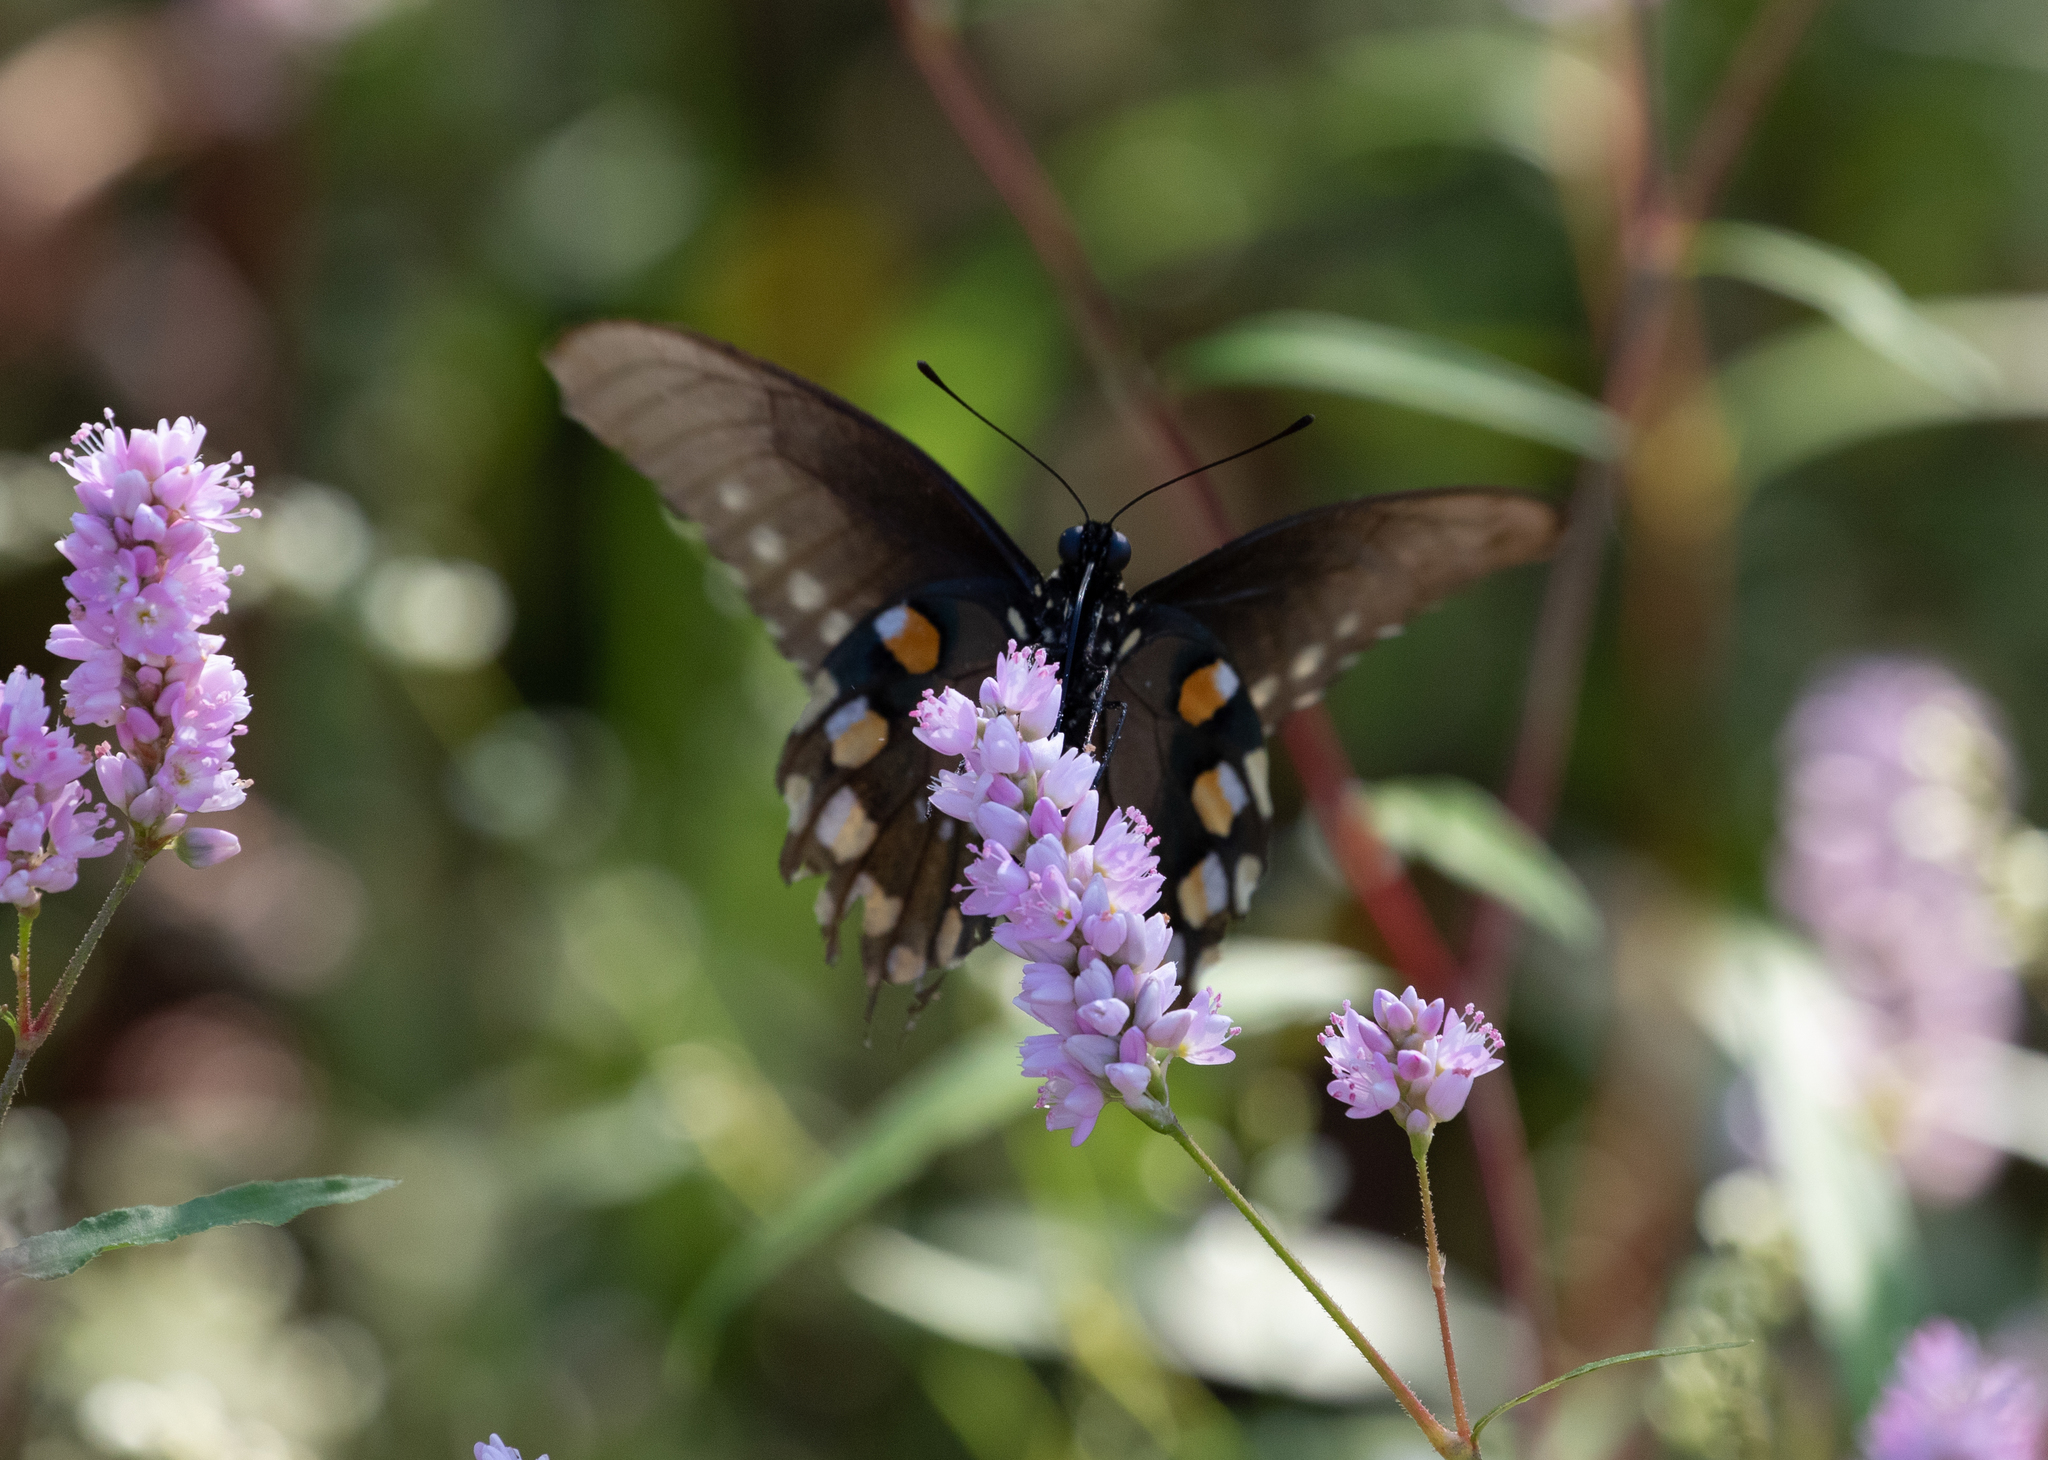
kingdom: Animalia
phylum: Arthropoda
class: Insecta
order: Lepidoptera
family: Papilionidae
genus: Battus
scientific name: Battus philenor
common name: Pipevine swallowtail
